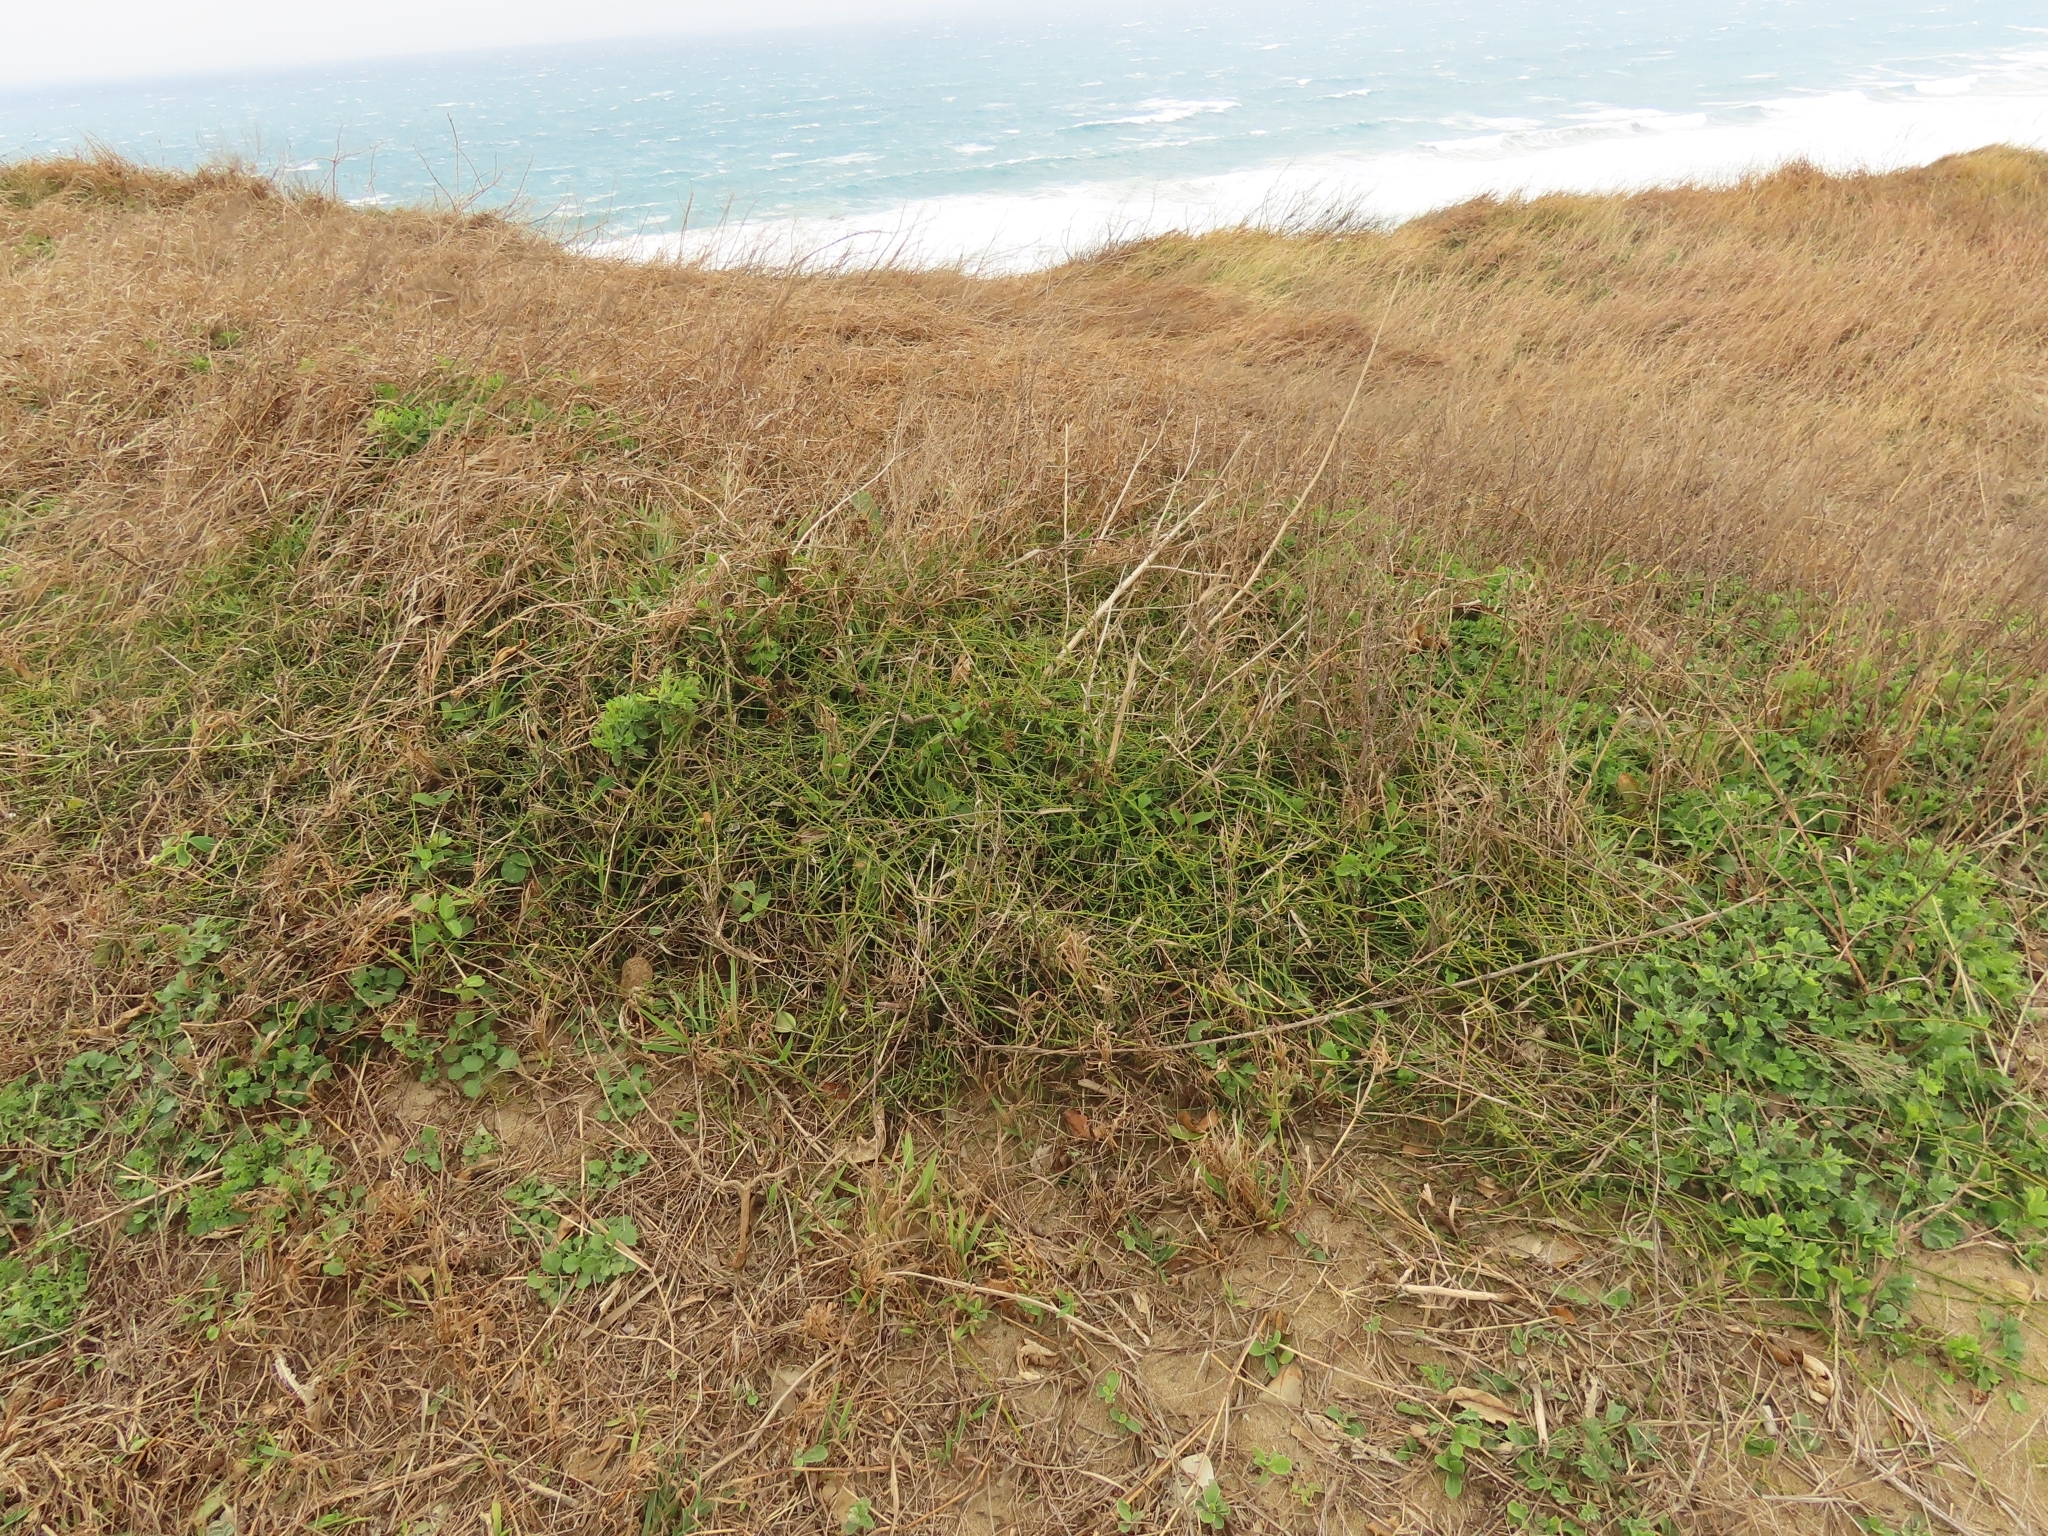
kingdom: Plantae
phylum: Tracheophyta
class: Magnoliopsida
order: Laurales
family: Lauraceae
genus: Cassytha
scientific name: Cassytha filiformis
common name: Dodder-laurel
